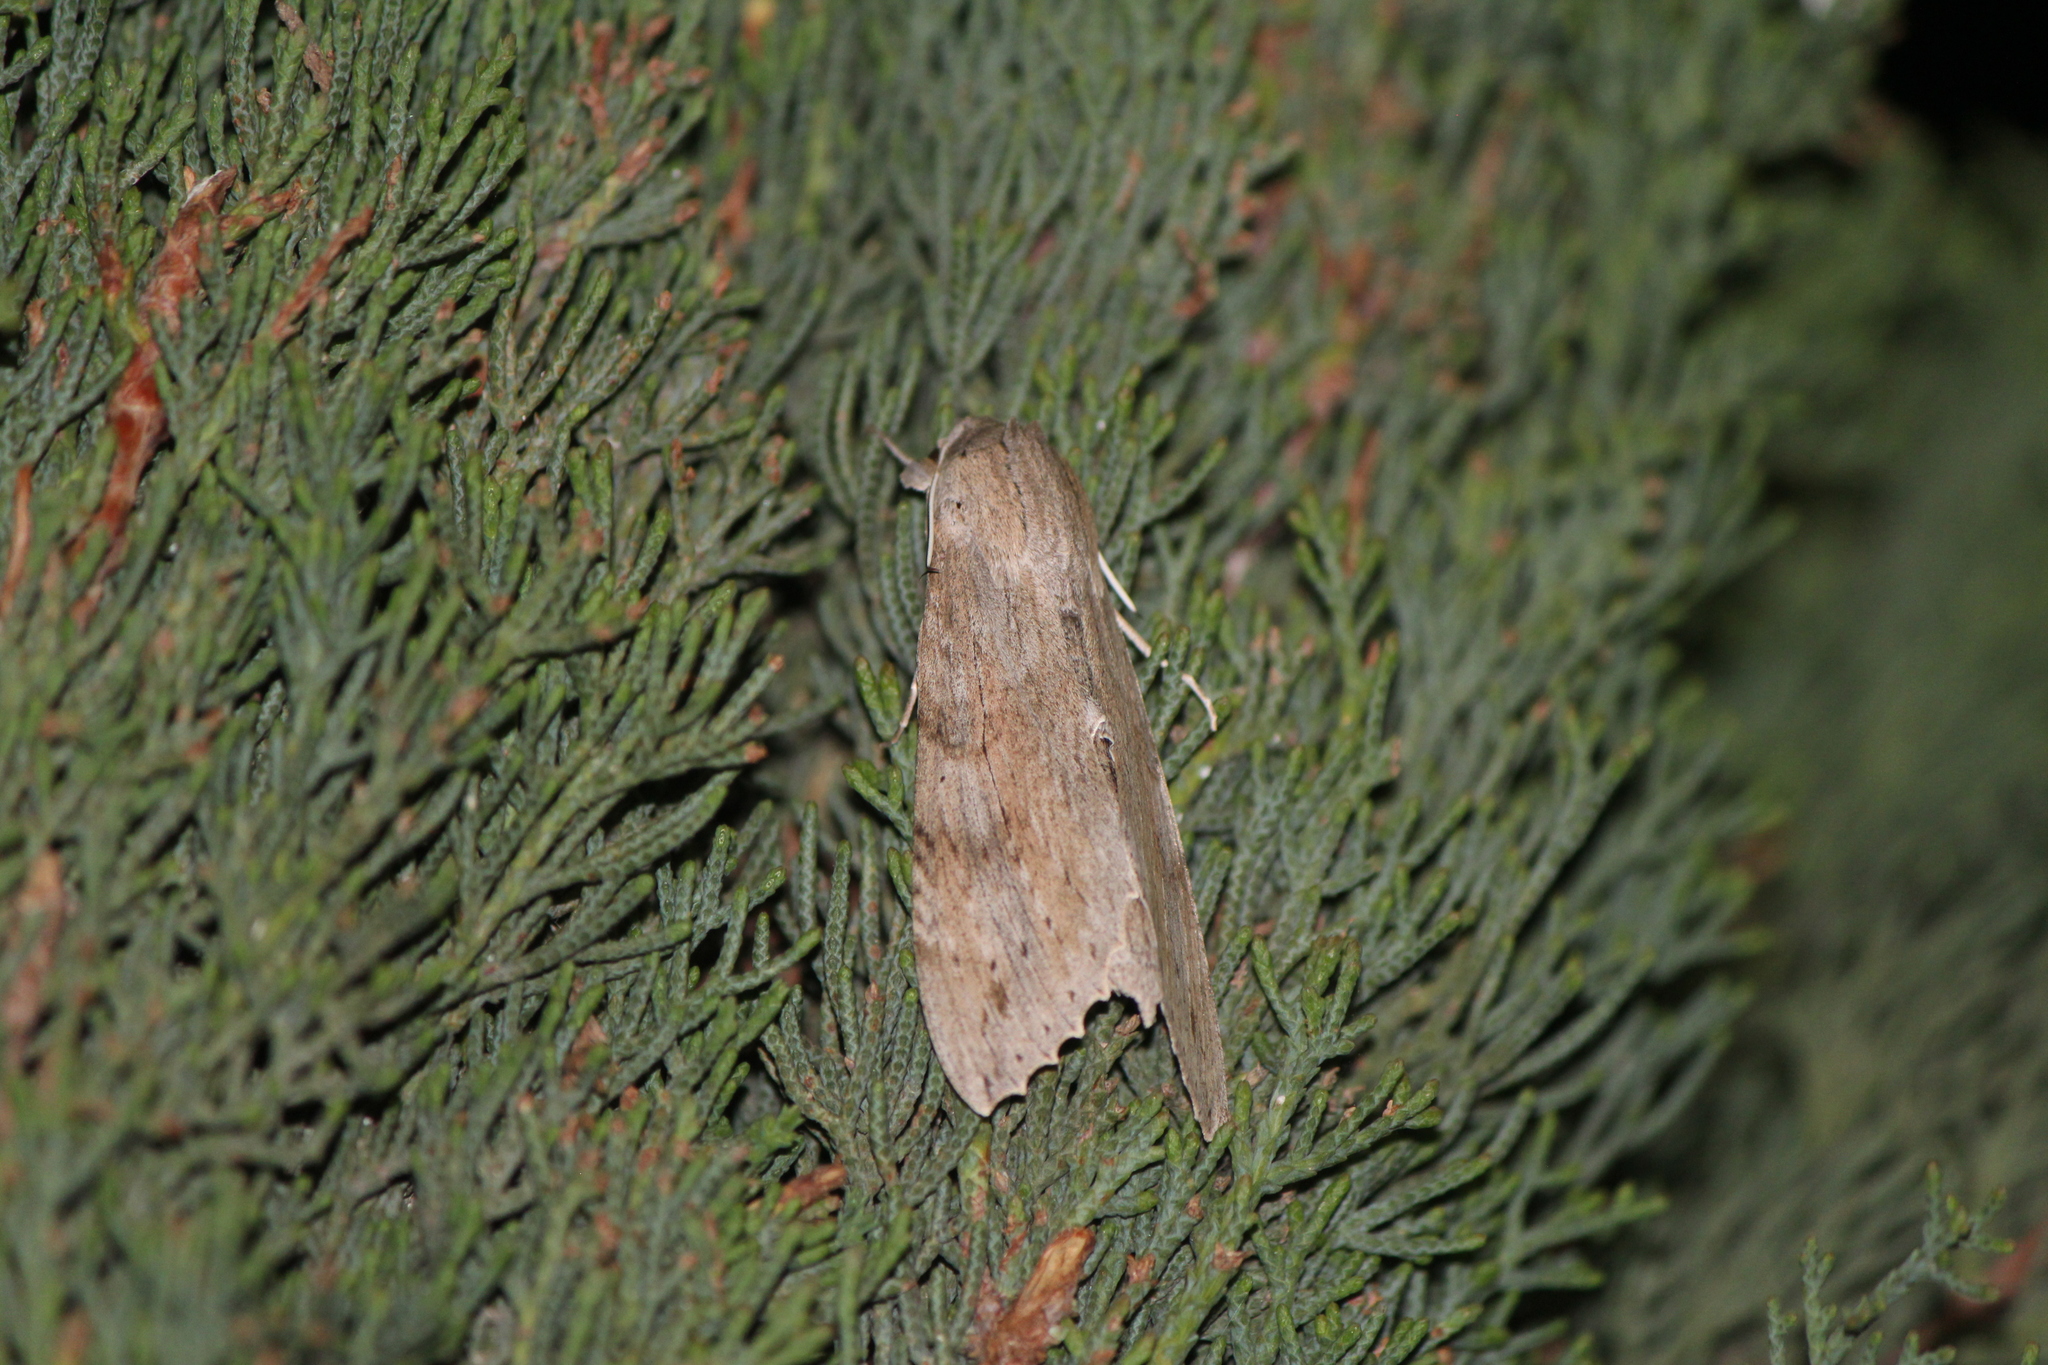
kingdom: Animalia
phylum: Arthropoda
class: Insecta
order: Lepidoptera
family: Sphingidae
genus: Erinnyis
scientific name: Erinnyis ello
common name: Ello sphinx
